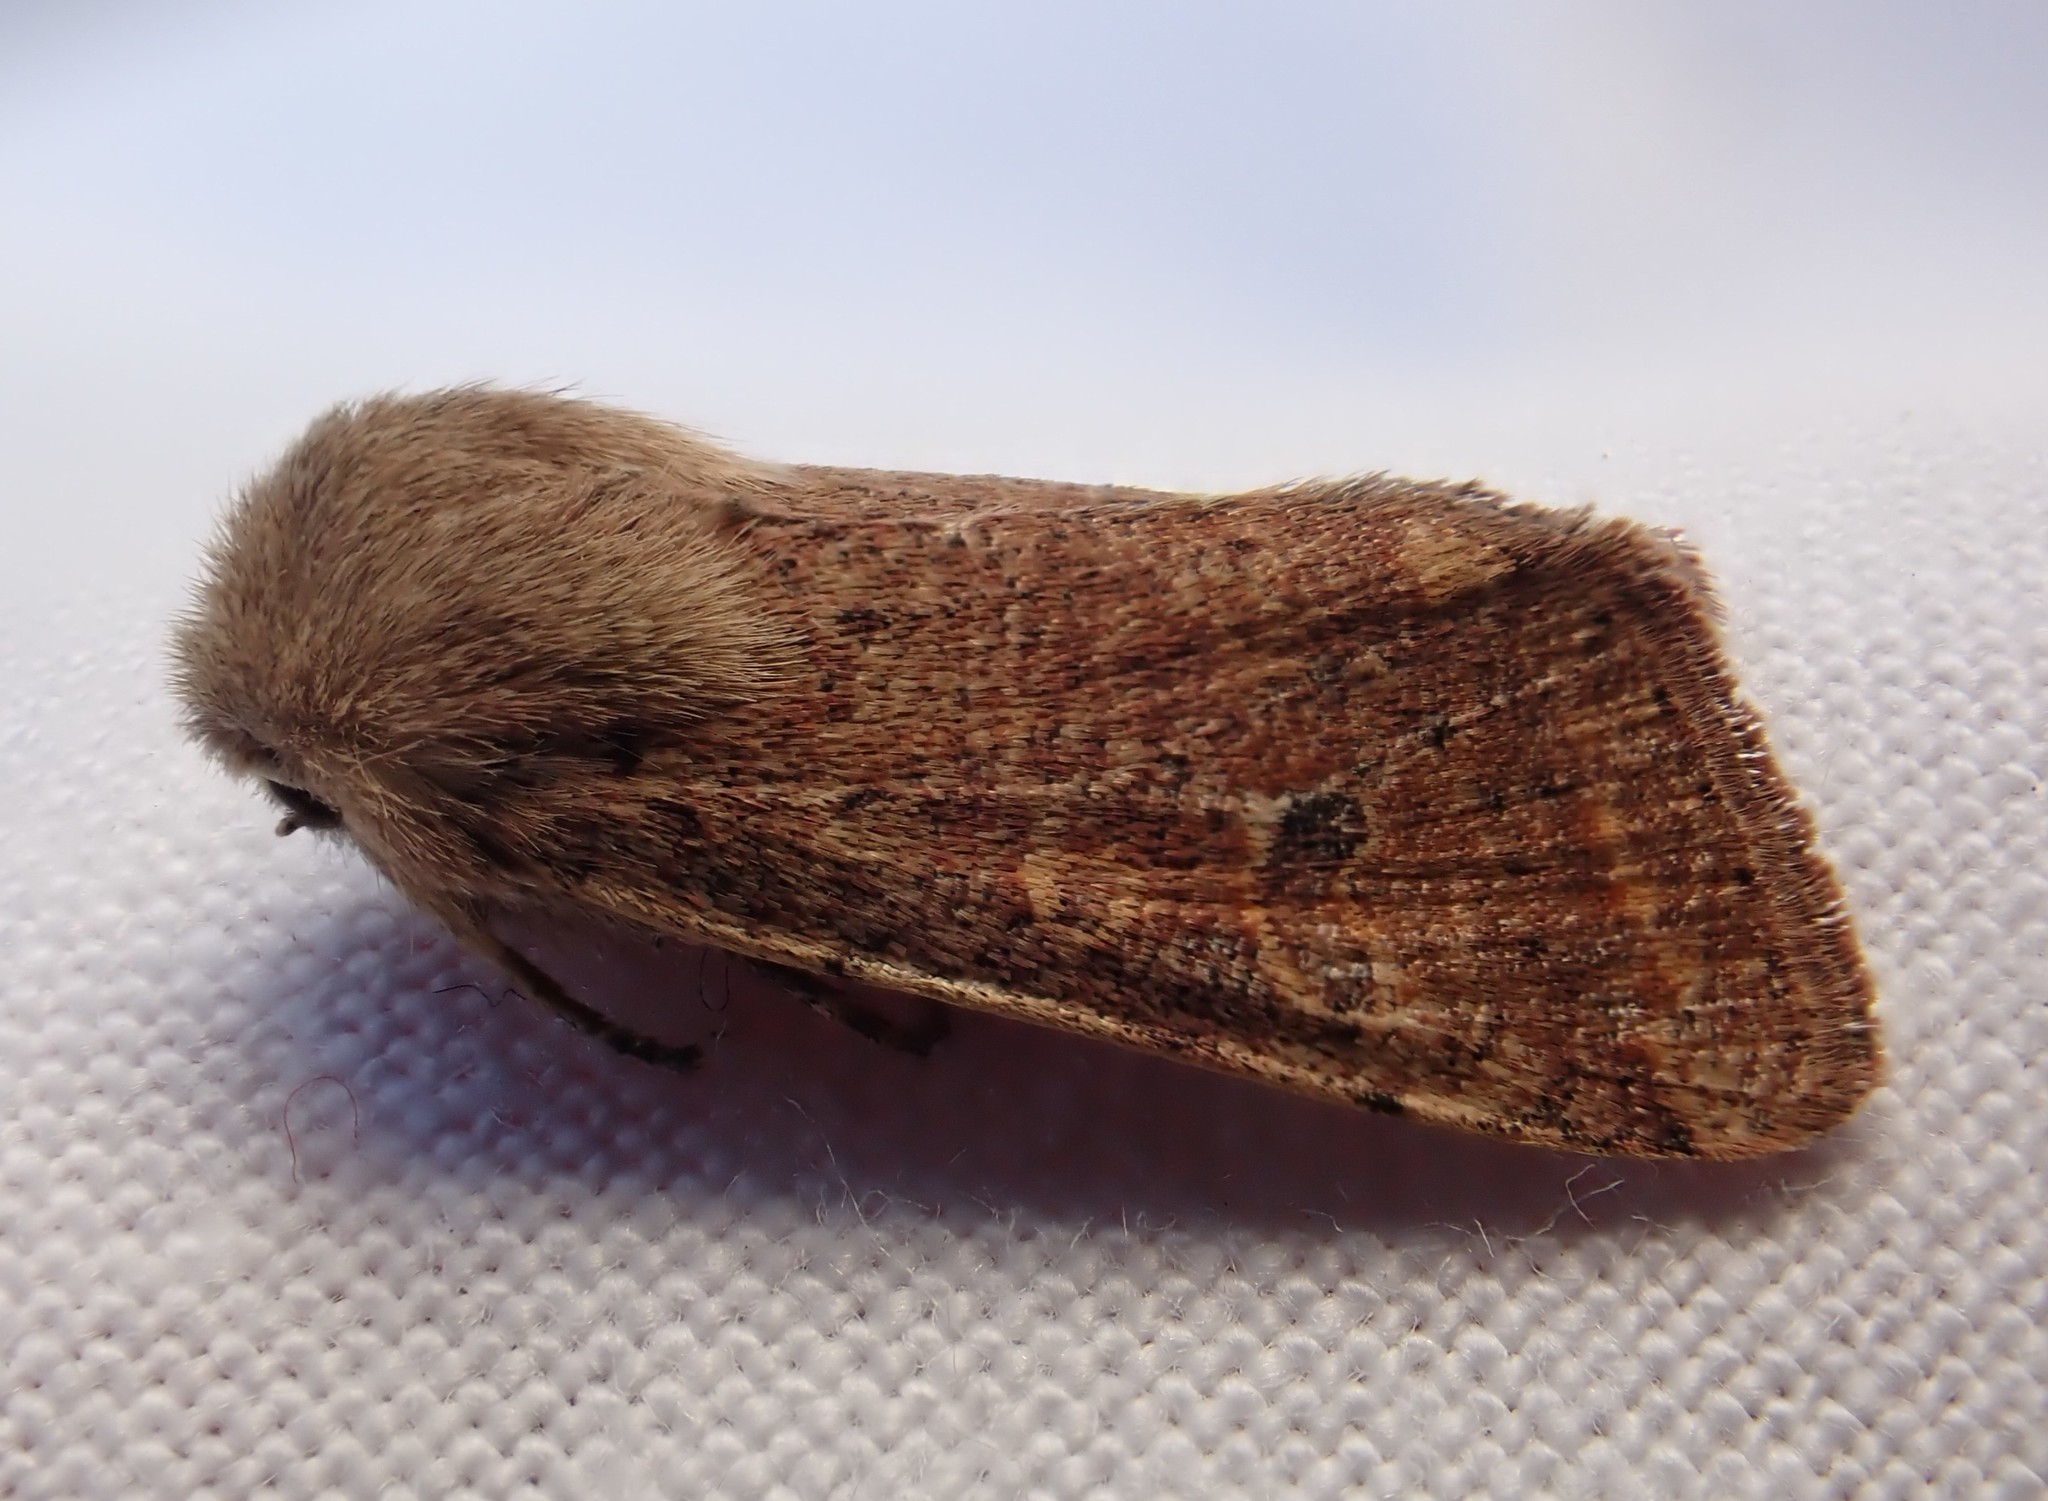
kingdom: Animalia
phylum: Arthropoda
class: Insecta
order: Lepidoptera
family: Noctuidae
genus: Orthosia
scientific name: Orthosia cruda
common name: Small quaker
